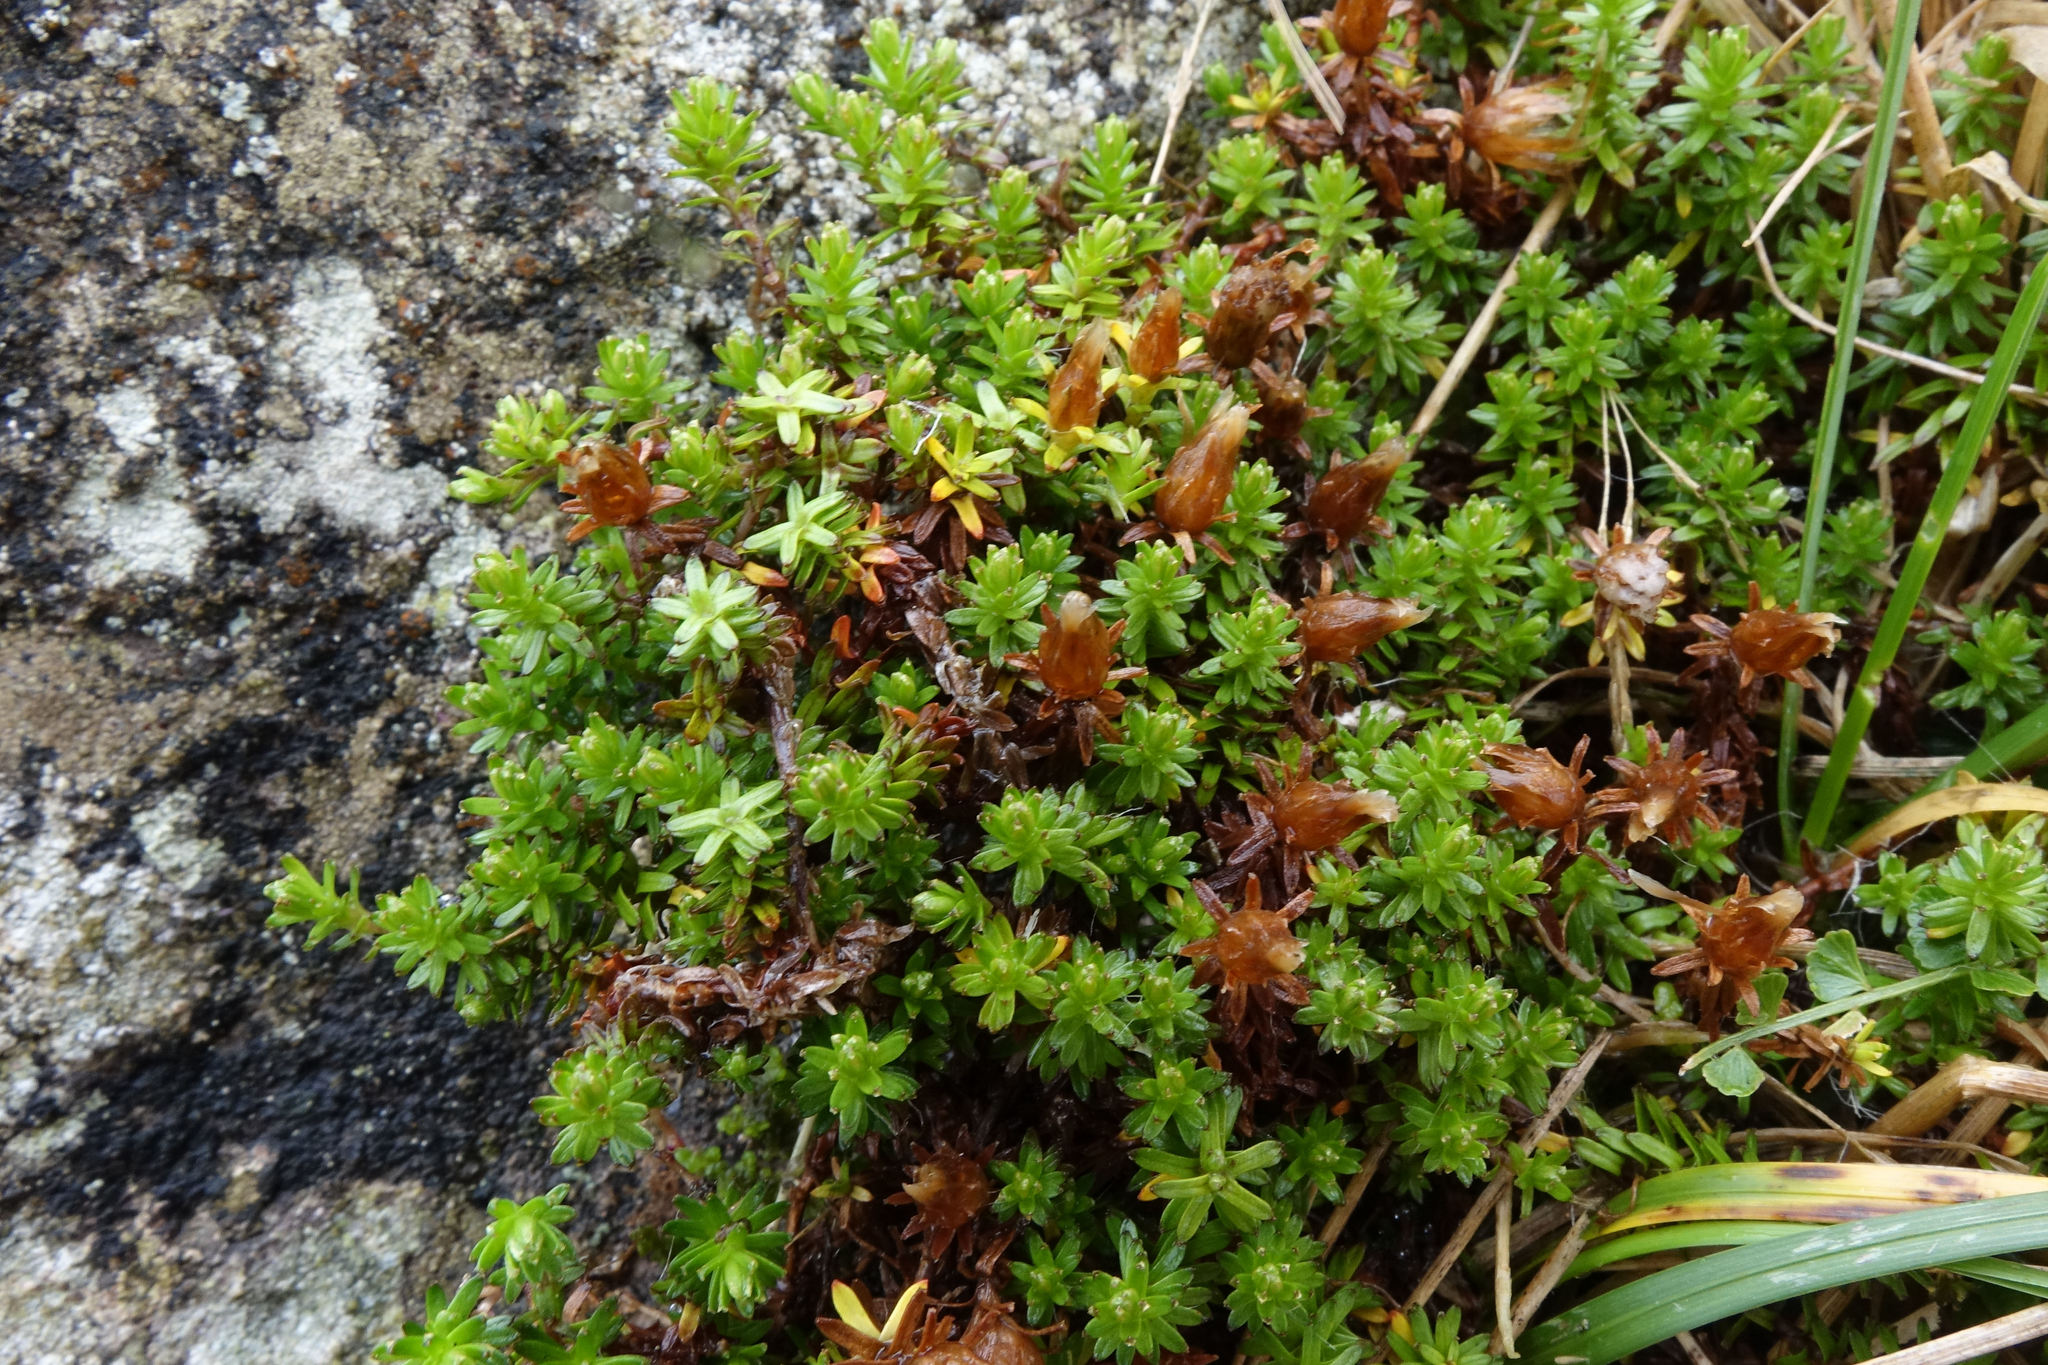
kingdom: Plantae
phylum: Tracheophyta
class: Magnoliopsida
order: Asterales
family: Asteraceae
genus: Raoulia
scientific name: Raoulia glabra
